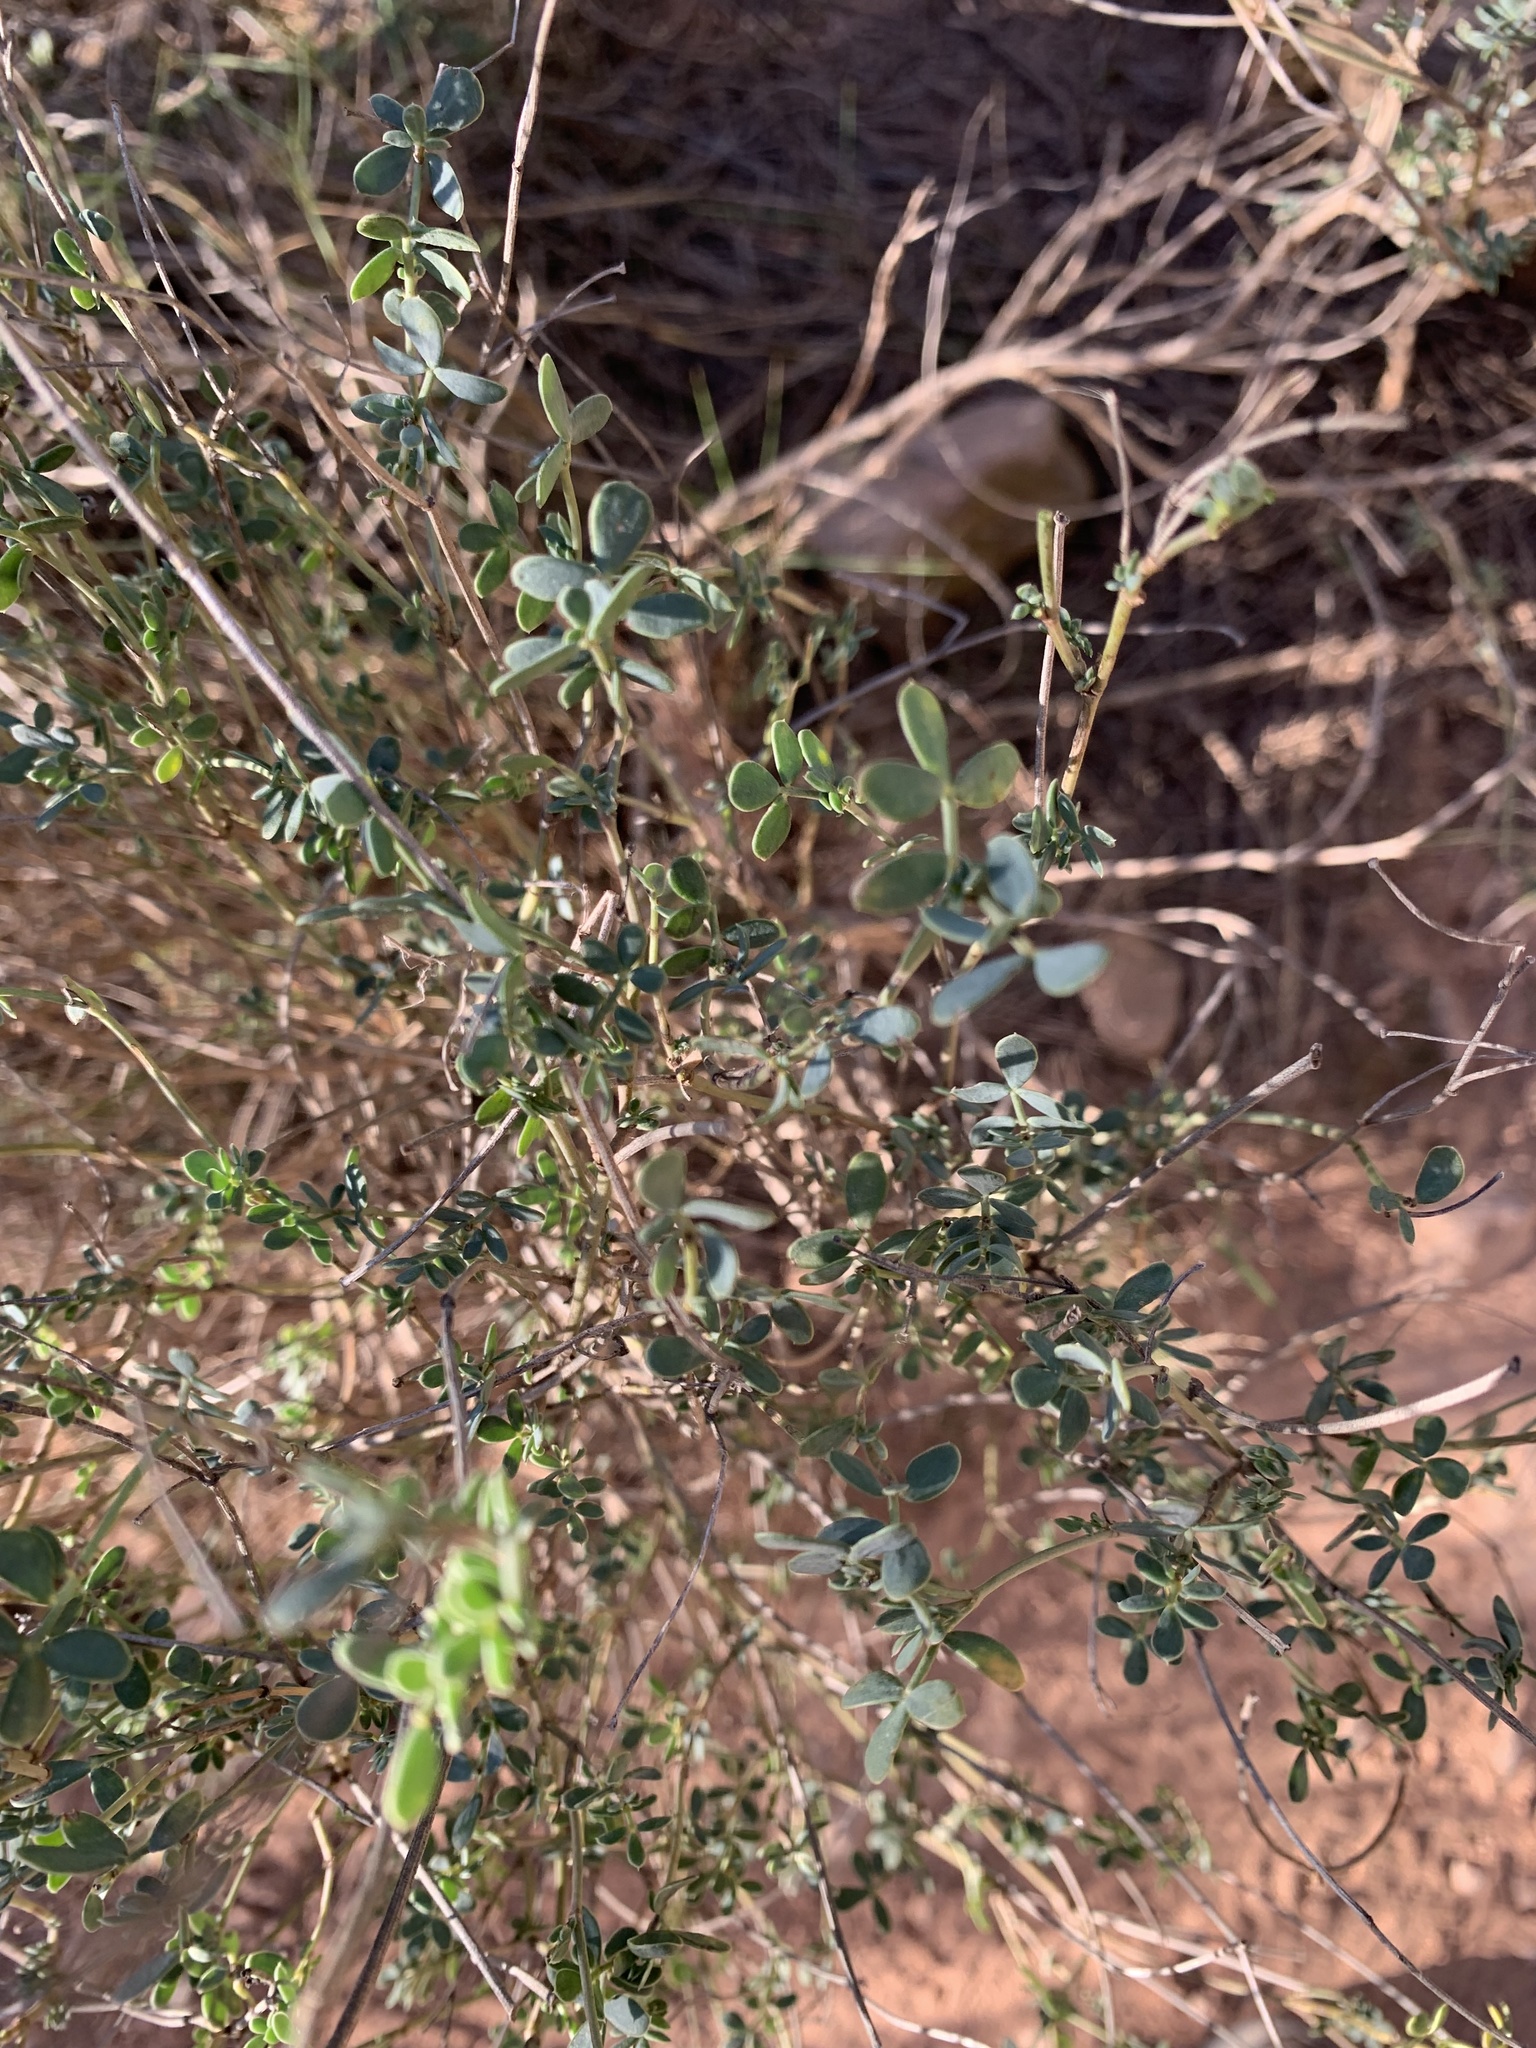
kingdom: Plantae
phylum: Tracheophyta
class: Magnoliopsida
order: Fabales
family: Fabaceae
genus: Coronilla
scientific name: Coronilla minima
